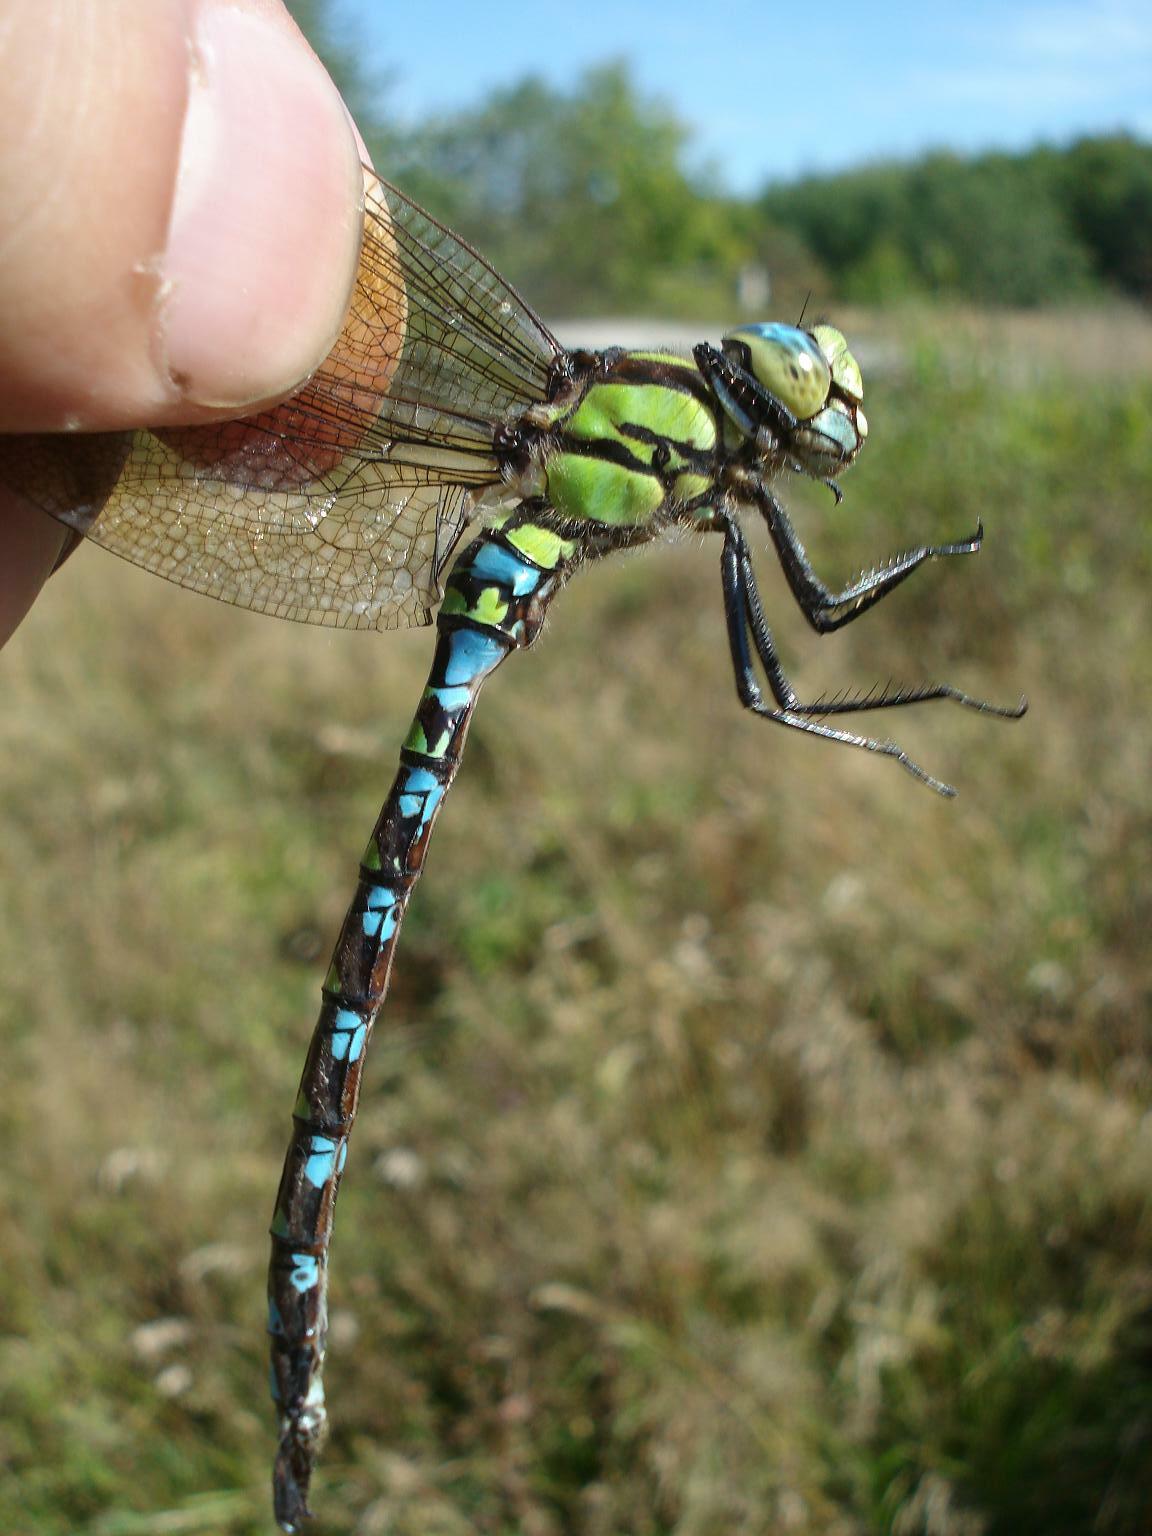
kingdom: Animalia
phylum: Arthropoda
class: Insecta
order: Odonata
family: Aeshnidae
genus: Aeshna
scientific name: Aeshna cyanea
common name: Southern hawker
